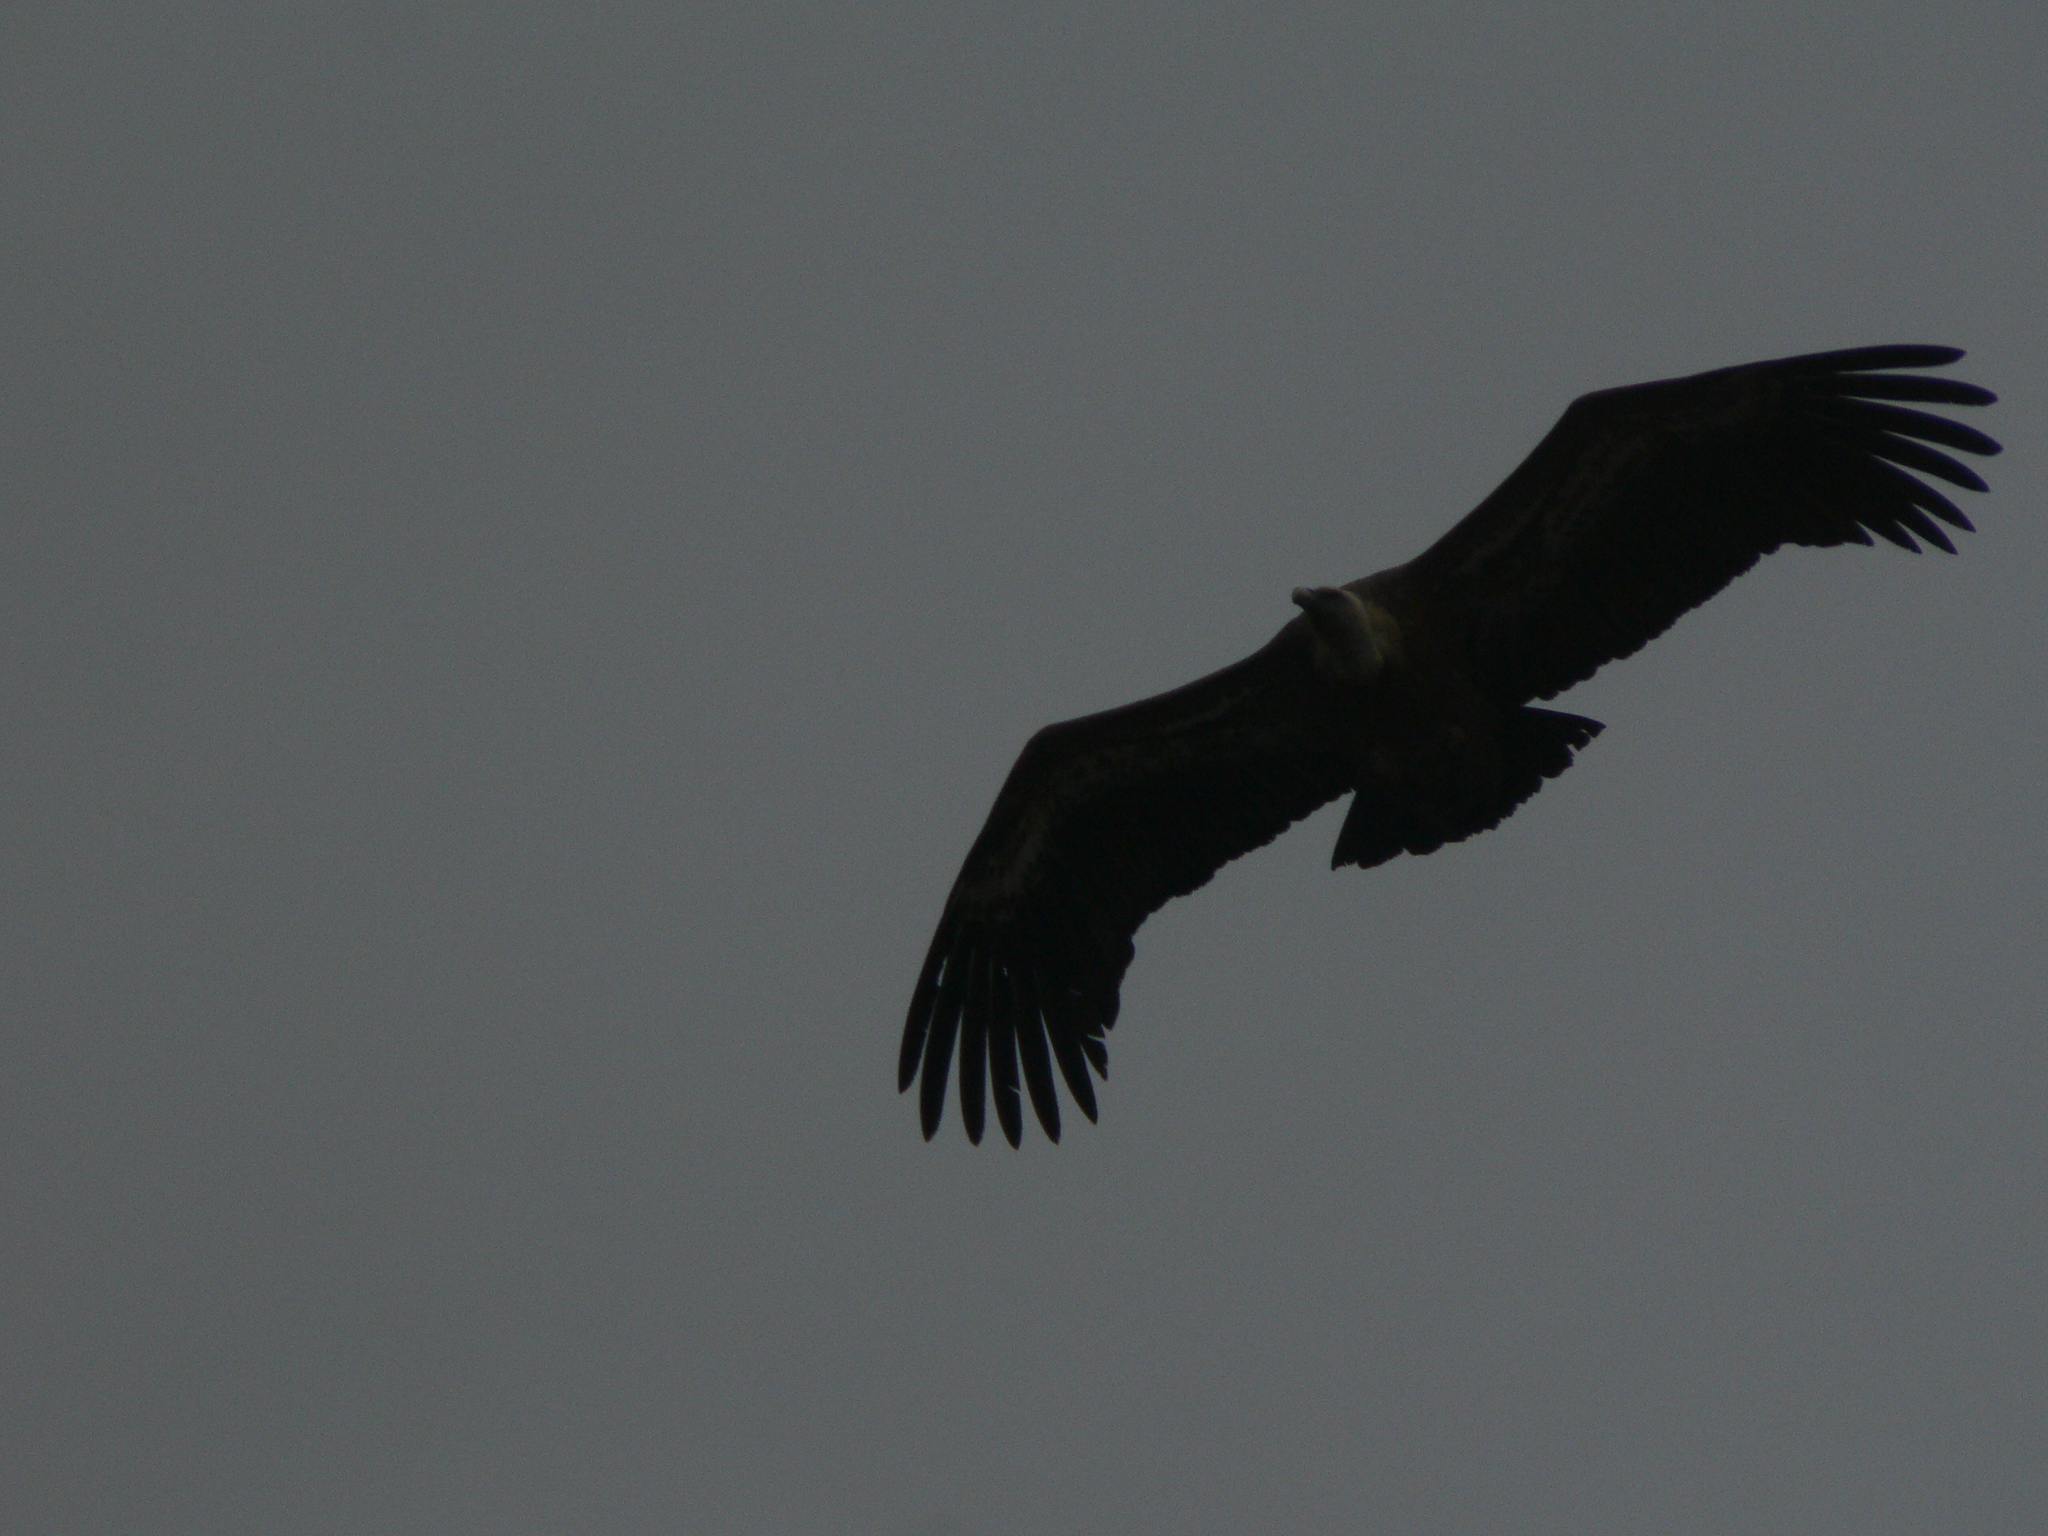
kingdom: Animalia
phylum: Chordata
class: Aves
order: Accipitriformes
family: Accipitridae
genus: Gyps
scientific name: Gyps fulvus
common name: Griffon vulture
